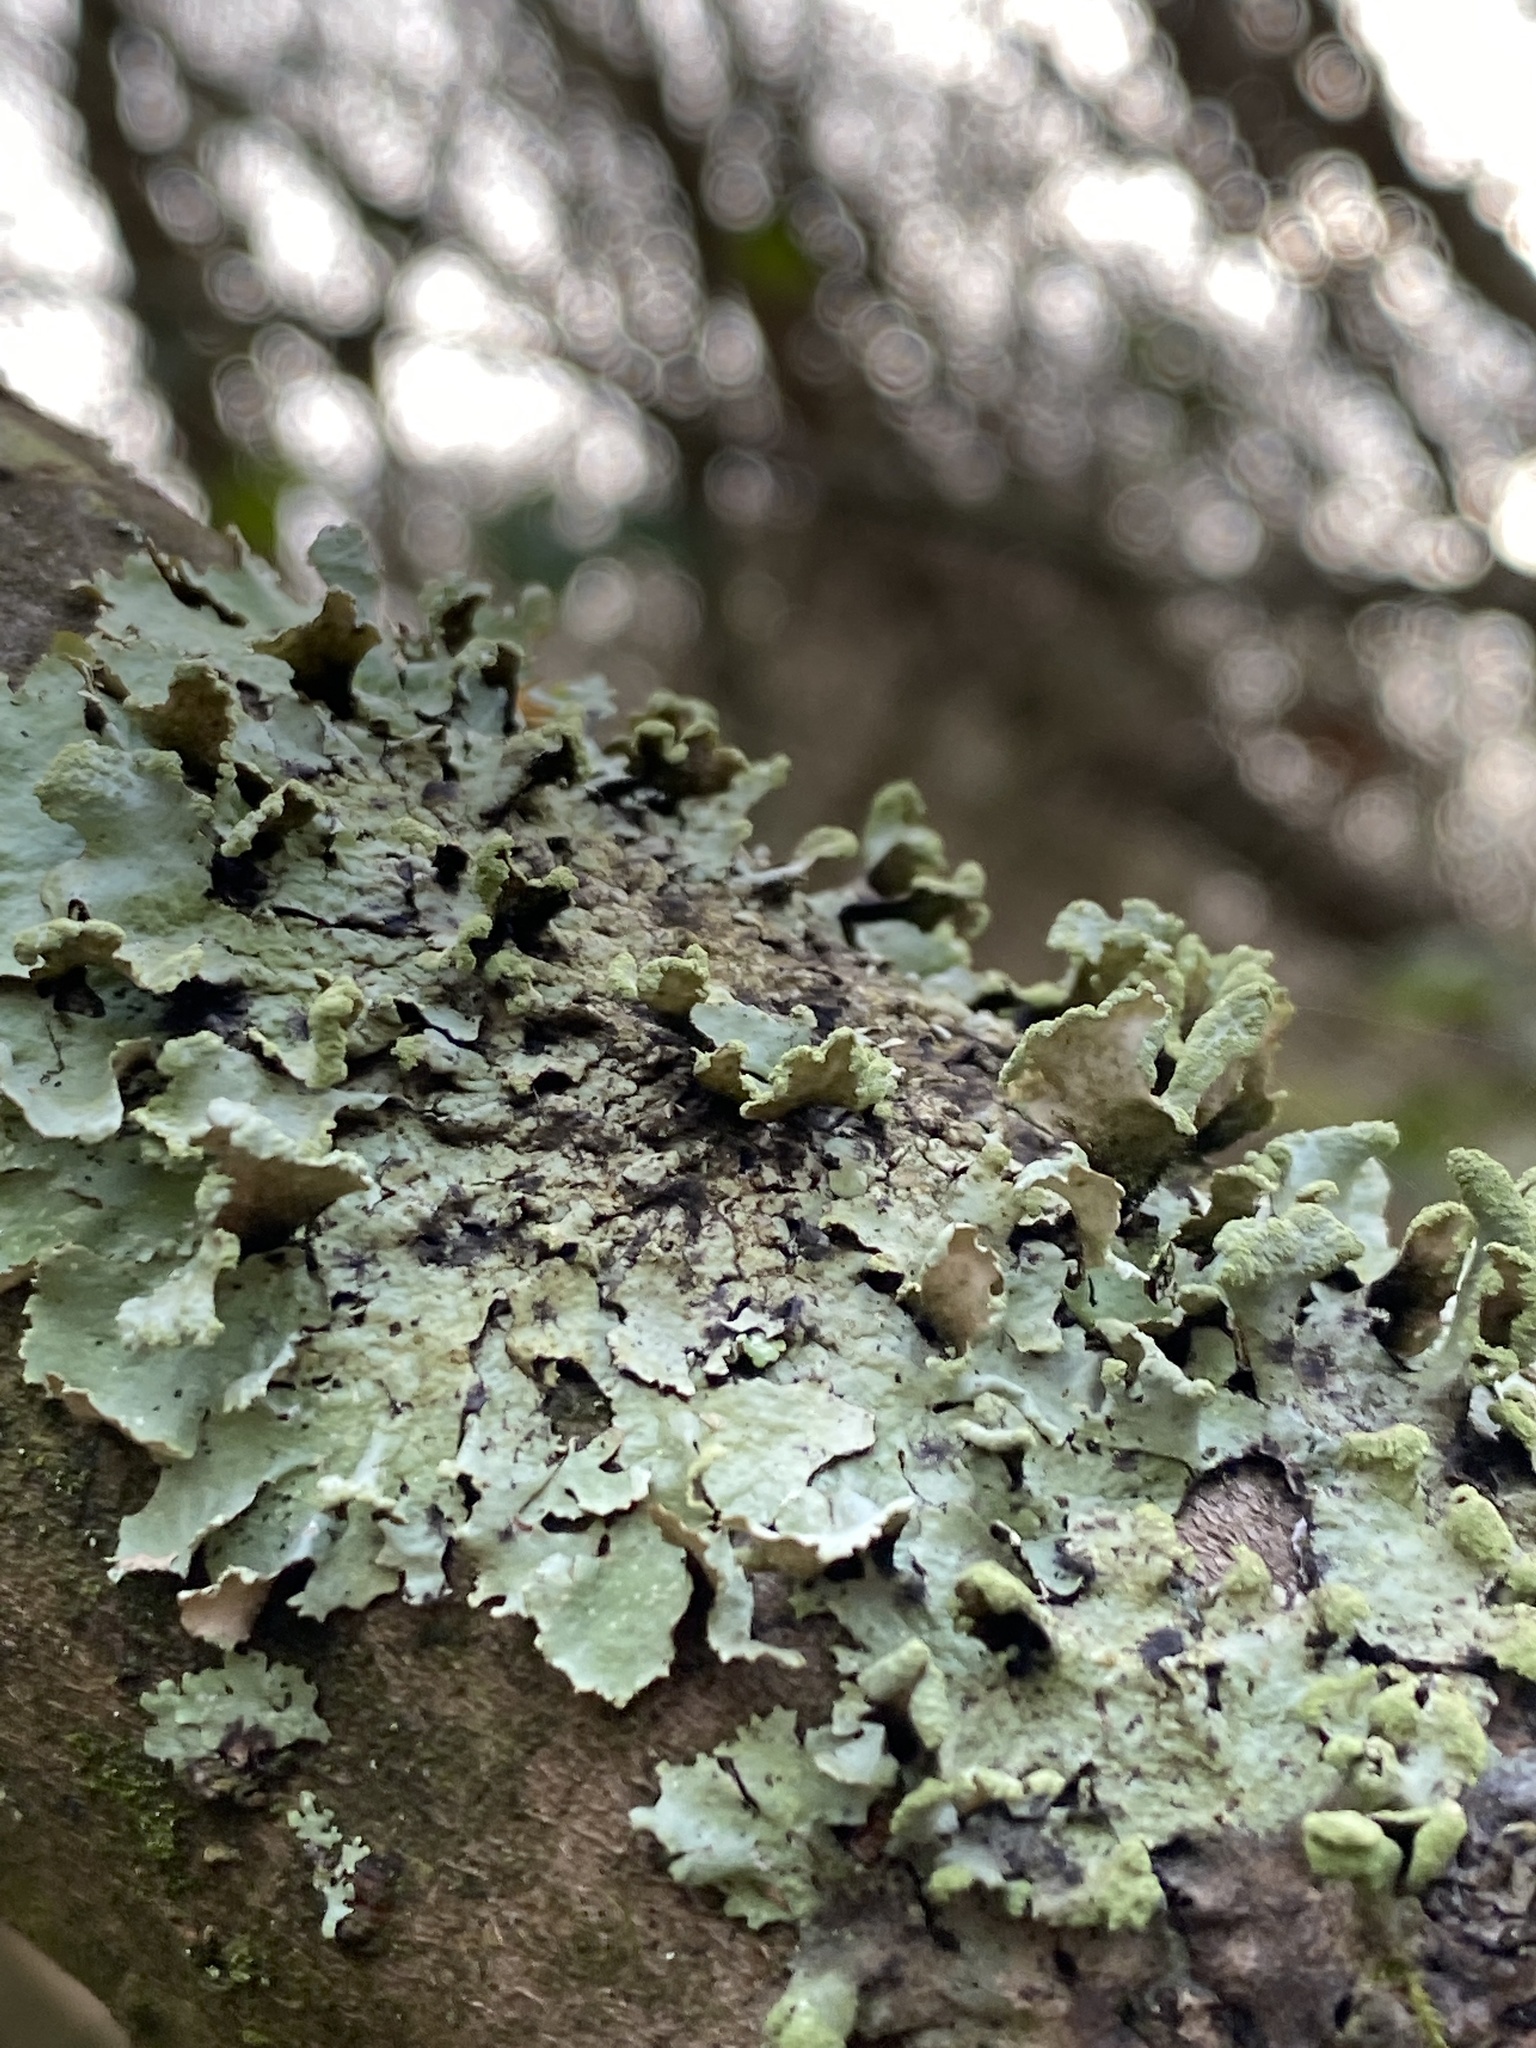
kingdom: Fungi
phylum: Ascomycota
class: Lecanoromycetes
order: Lecanorales
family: Parmeliaceae
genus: Hypotrachyna
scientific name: Hypotrachyna revoluta
